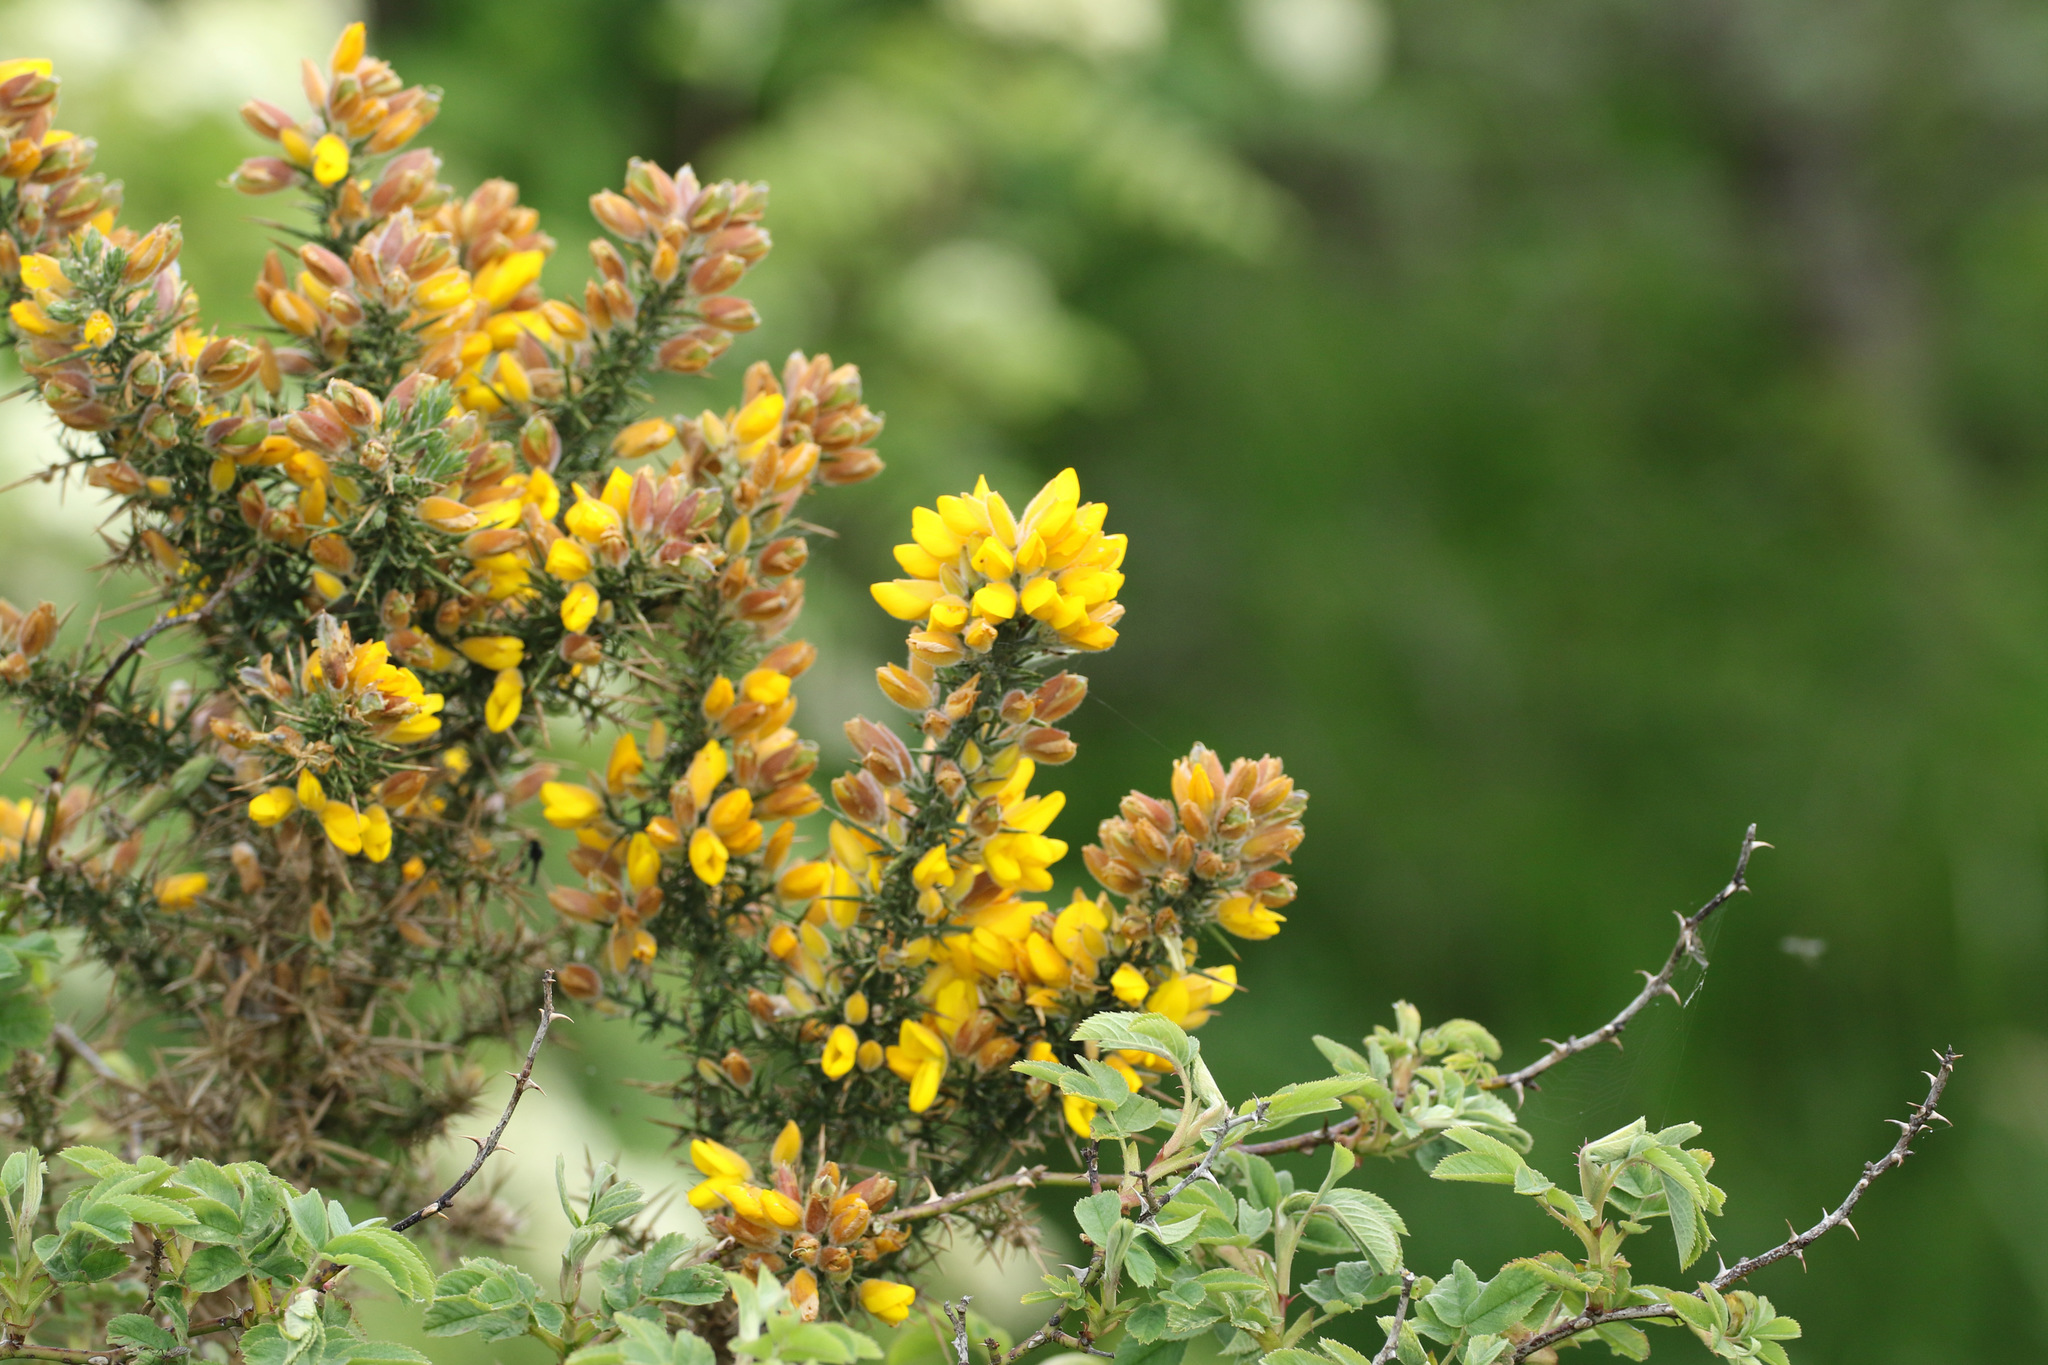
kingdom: Plantae
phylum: Tracheophyta
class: Magnoliopsida
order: Fabales
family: Fabaceae
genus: Ulex
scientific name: Ulex europaeus
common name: Common gorse
